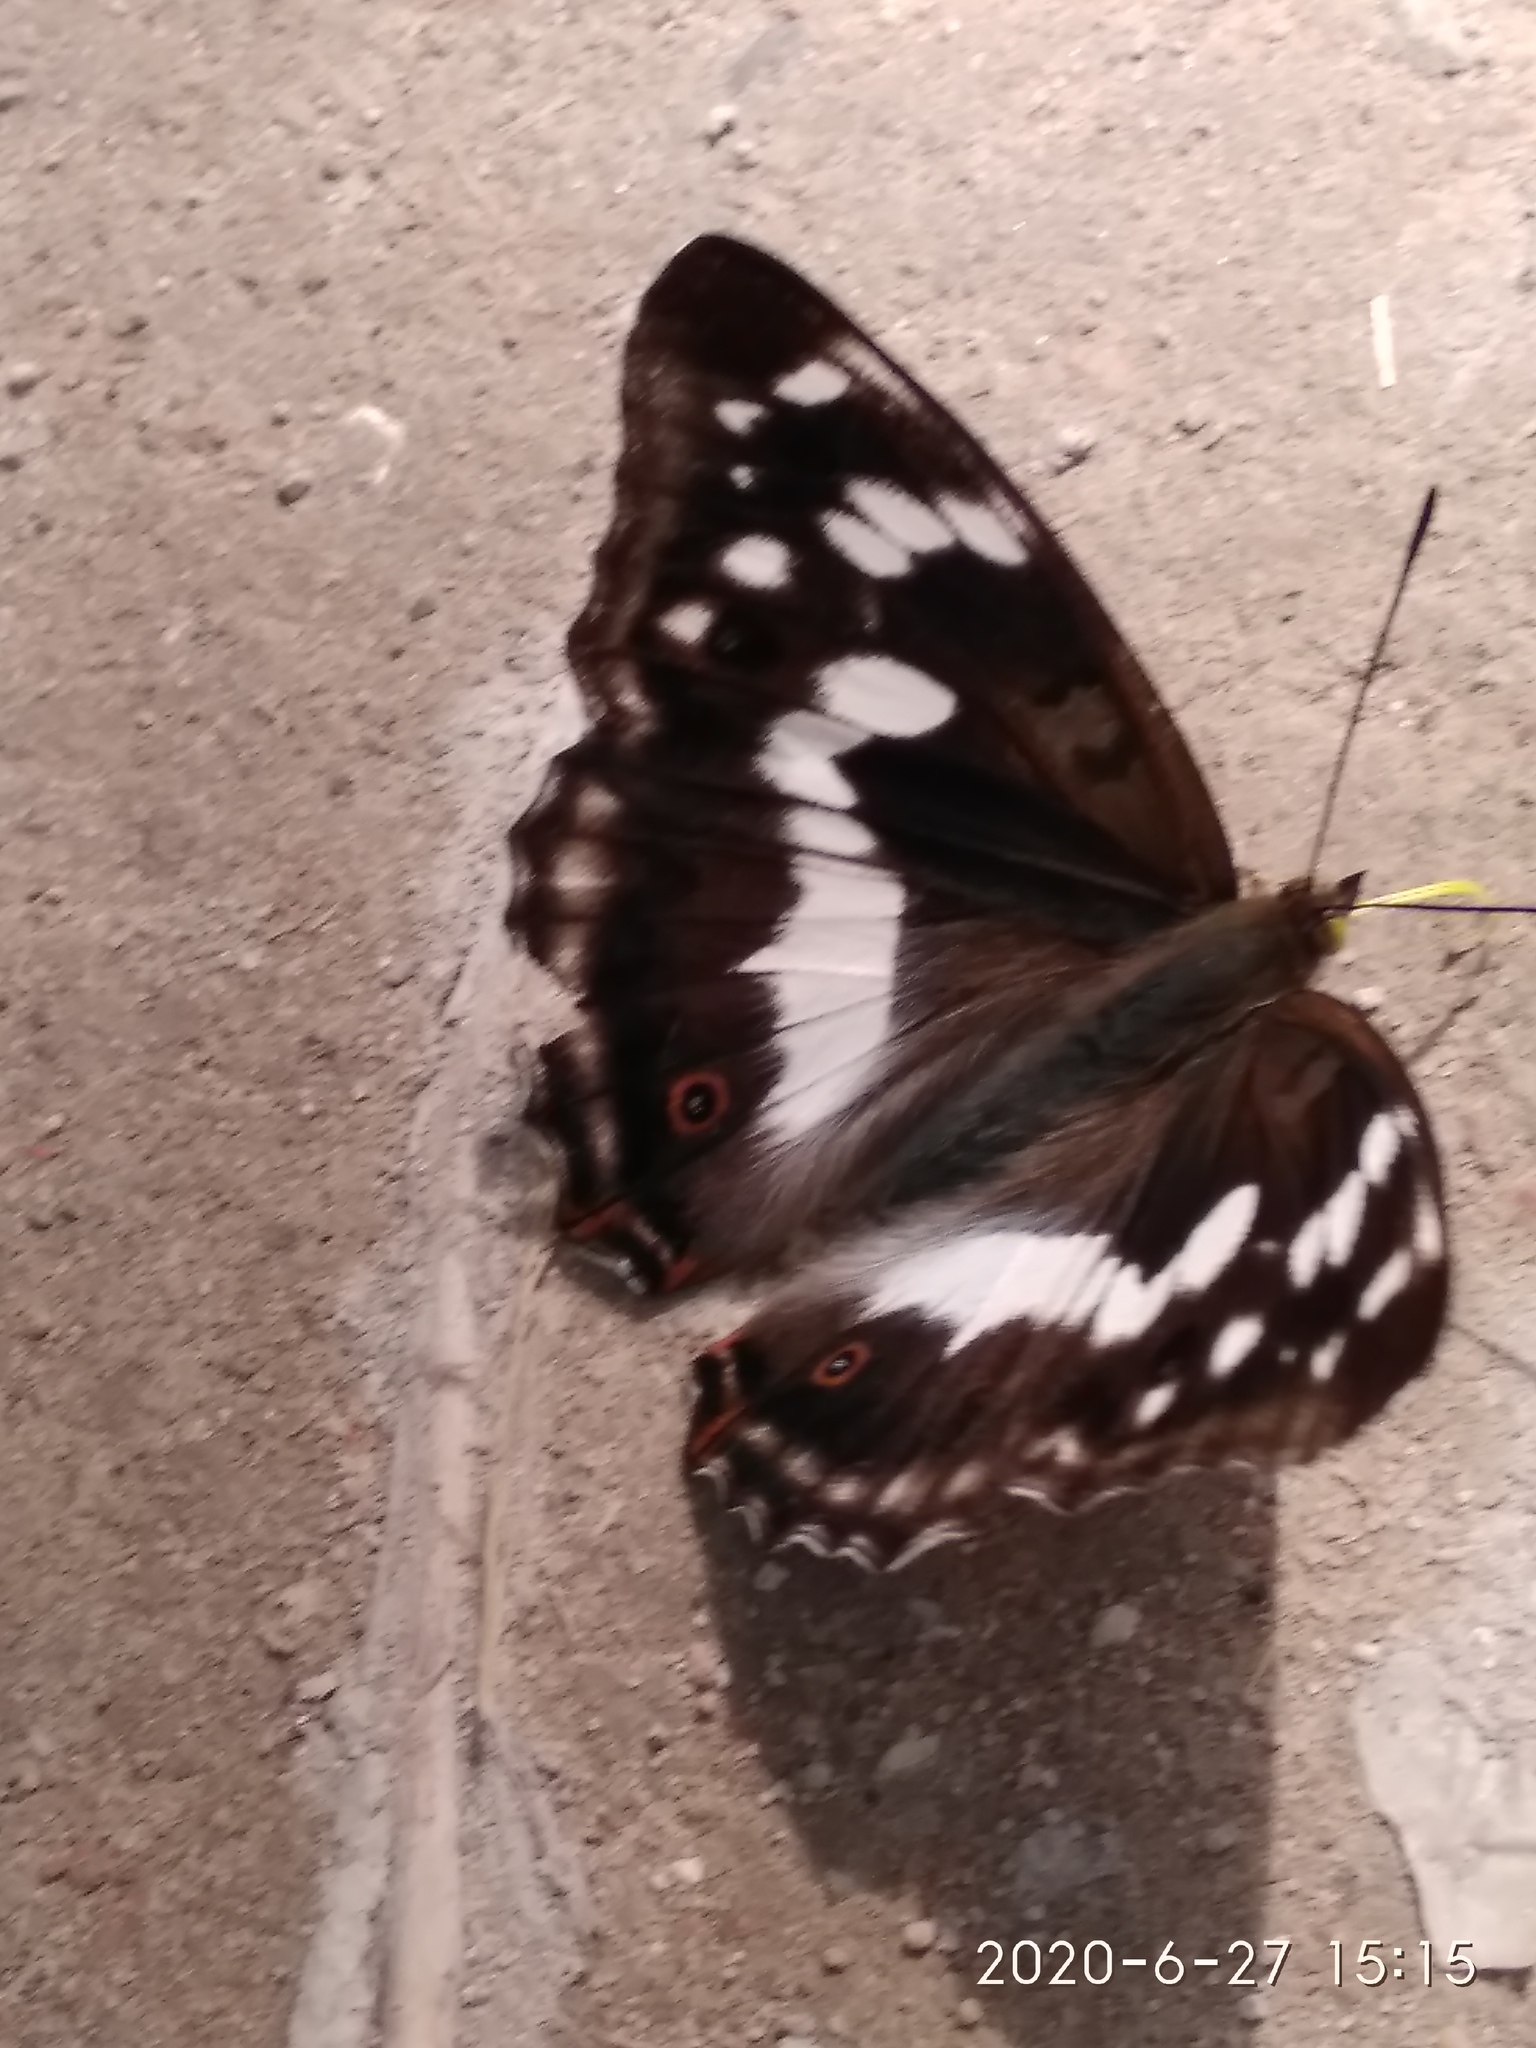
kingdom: Animalia
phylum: Arthropoda
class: Insecta
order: Lepidoptera
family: Nymphalidae
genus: Apatura
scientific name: Apatura iris
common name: Purple emperor
